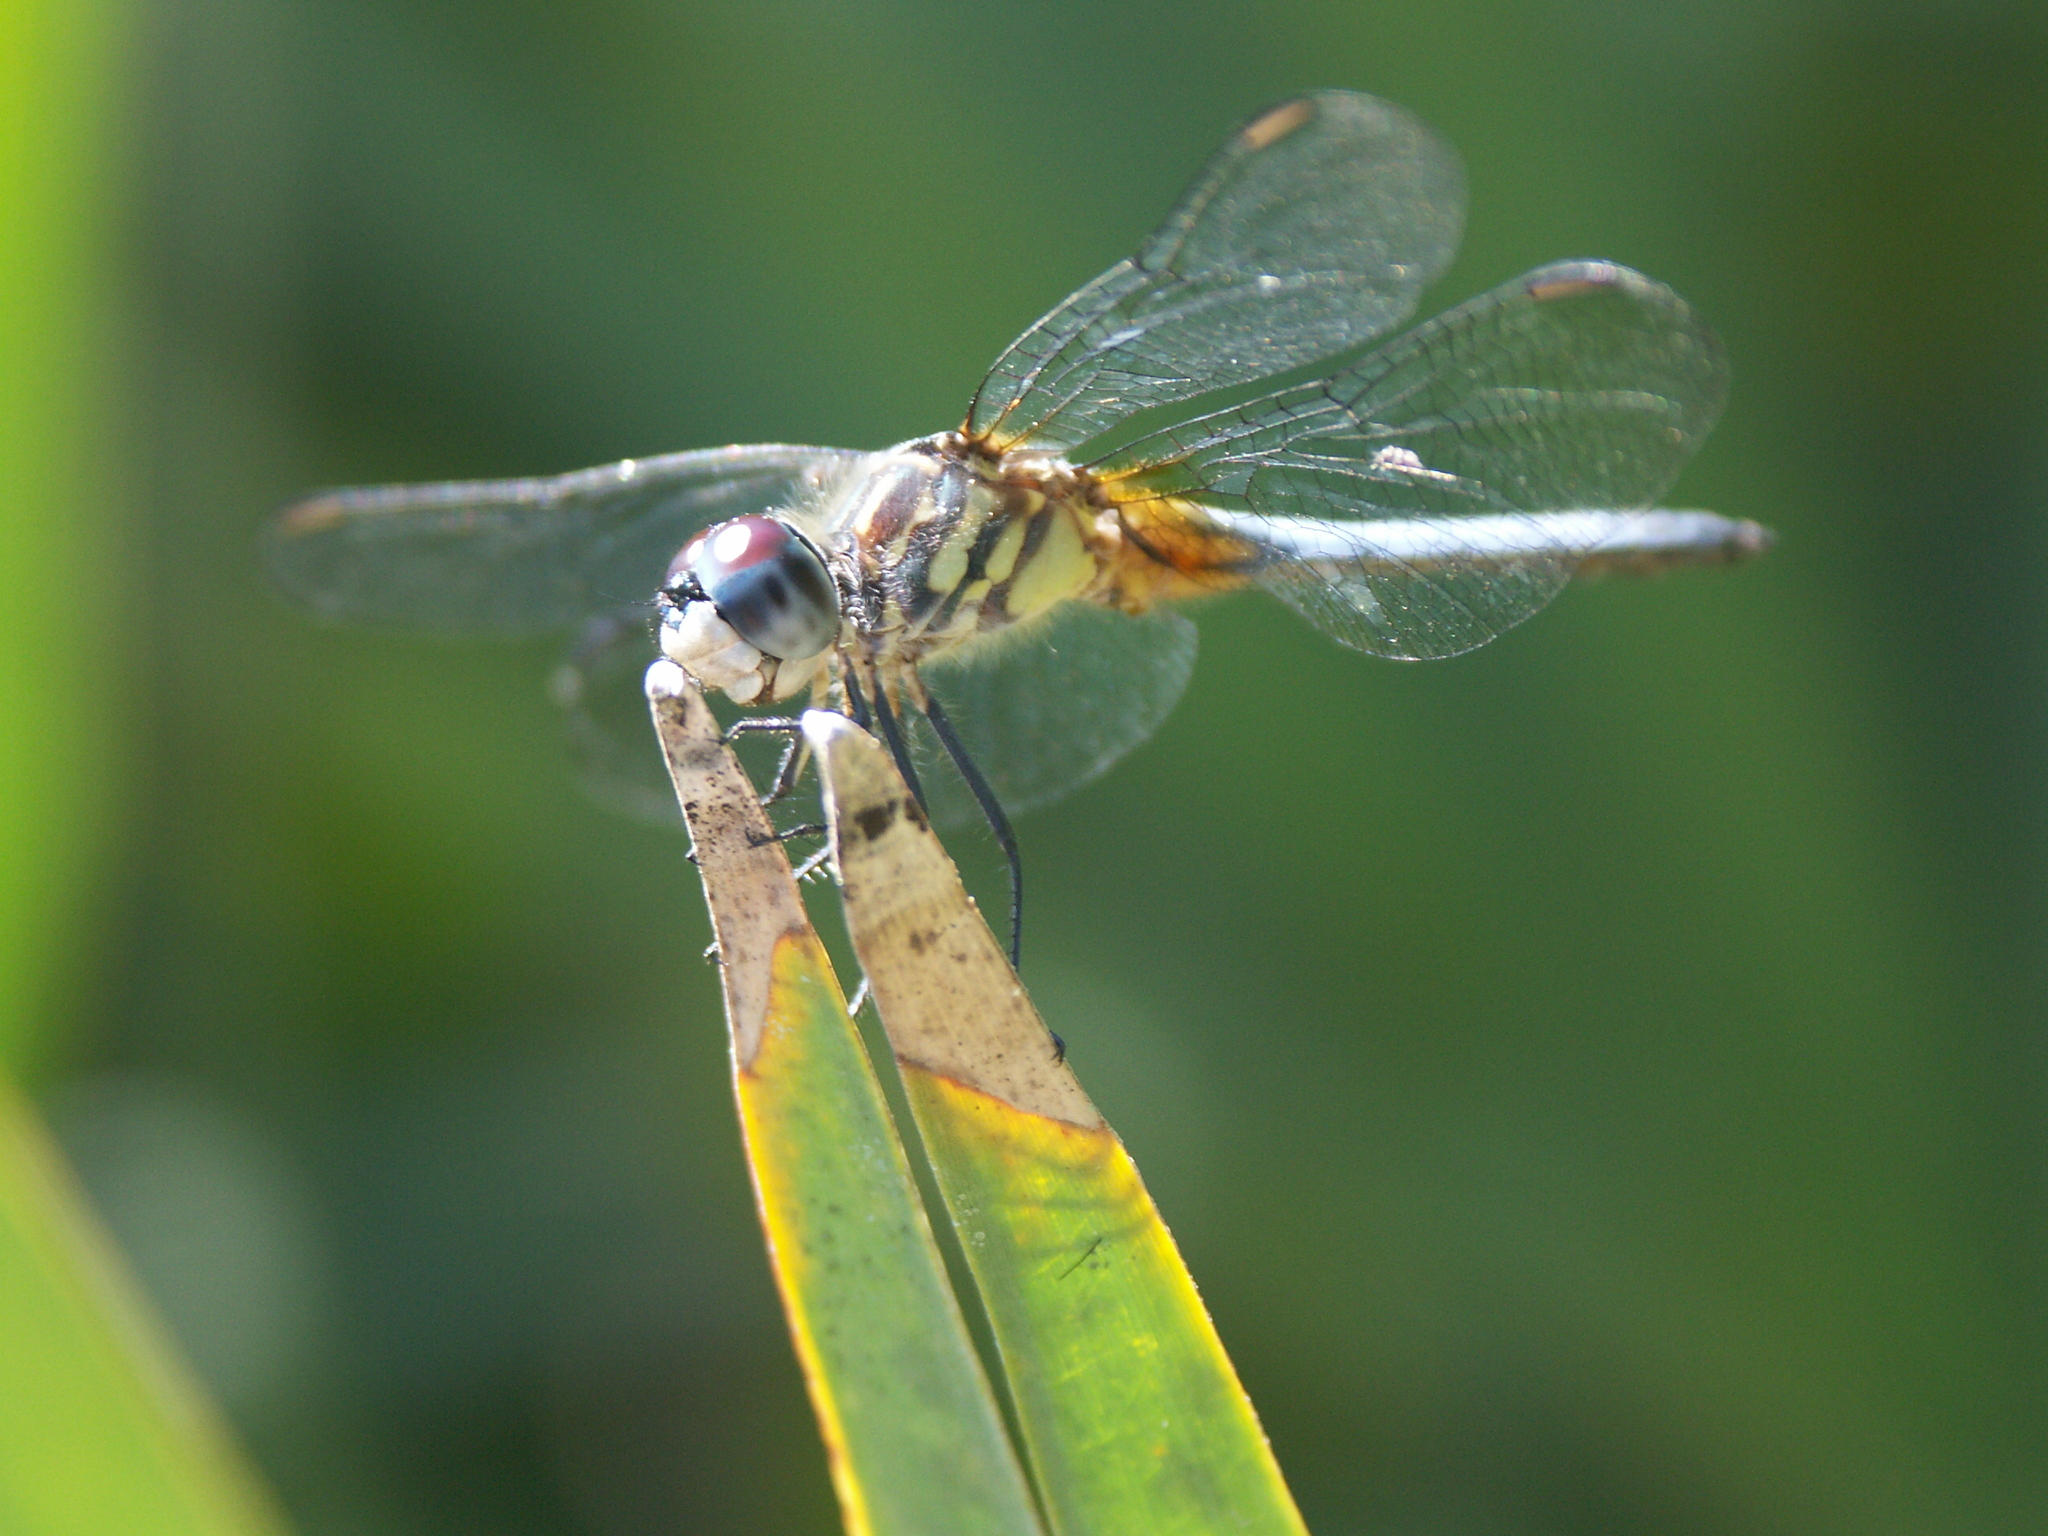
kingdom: Animalia
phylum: Arthropoda
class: Insecta
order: Odonata
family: Libellulidae
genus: Pachydiplax
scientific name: Pachydiplax longipennis
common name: Blue dasher
